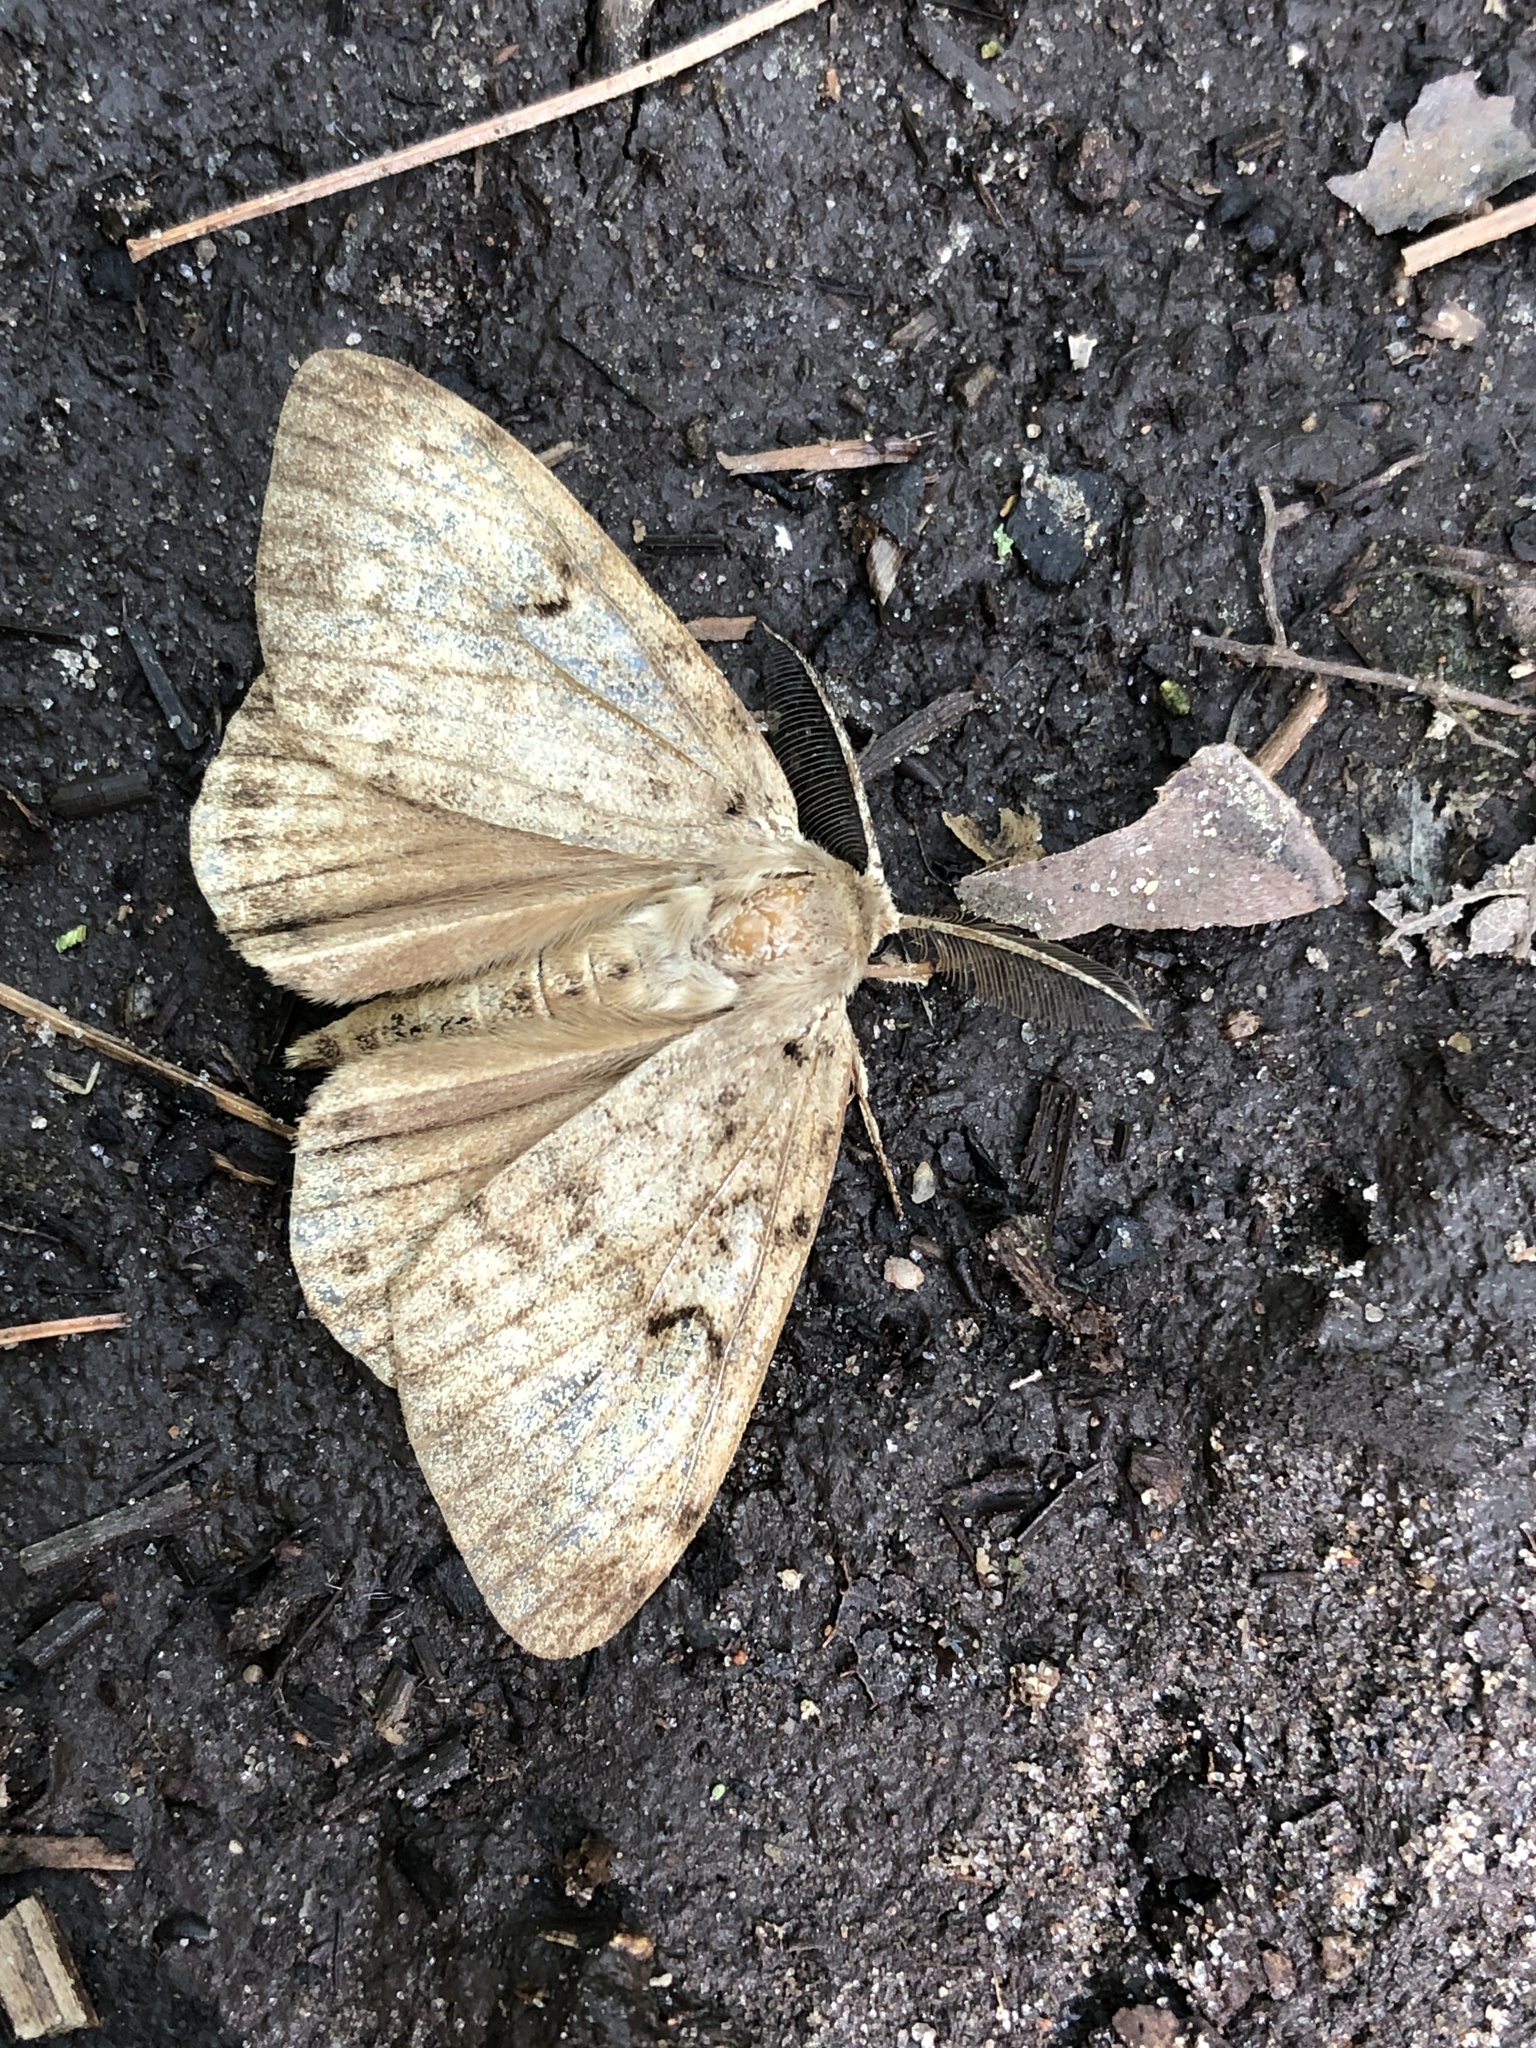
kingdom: Animalia
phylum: Arthropoda
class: Insecta
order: Lepidoptera
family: Erebidae
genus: Lymantria
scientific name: Lymantria dispar
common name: Gypsy moth
